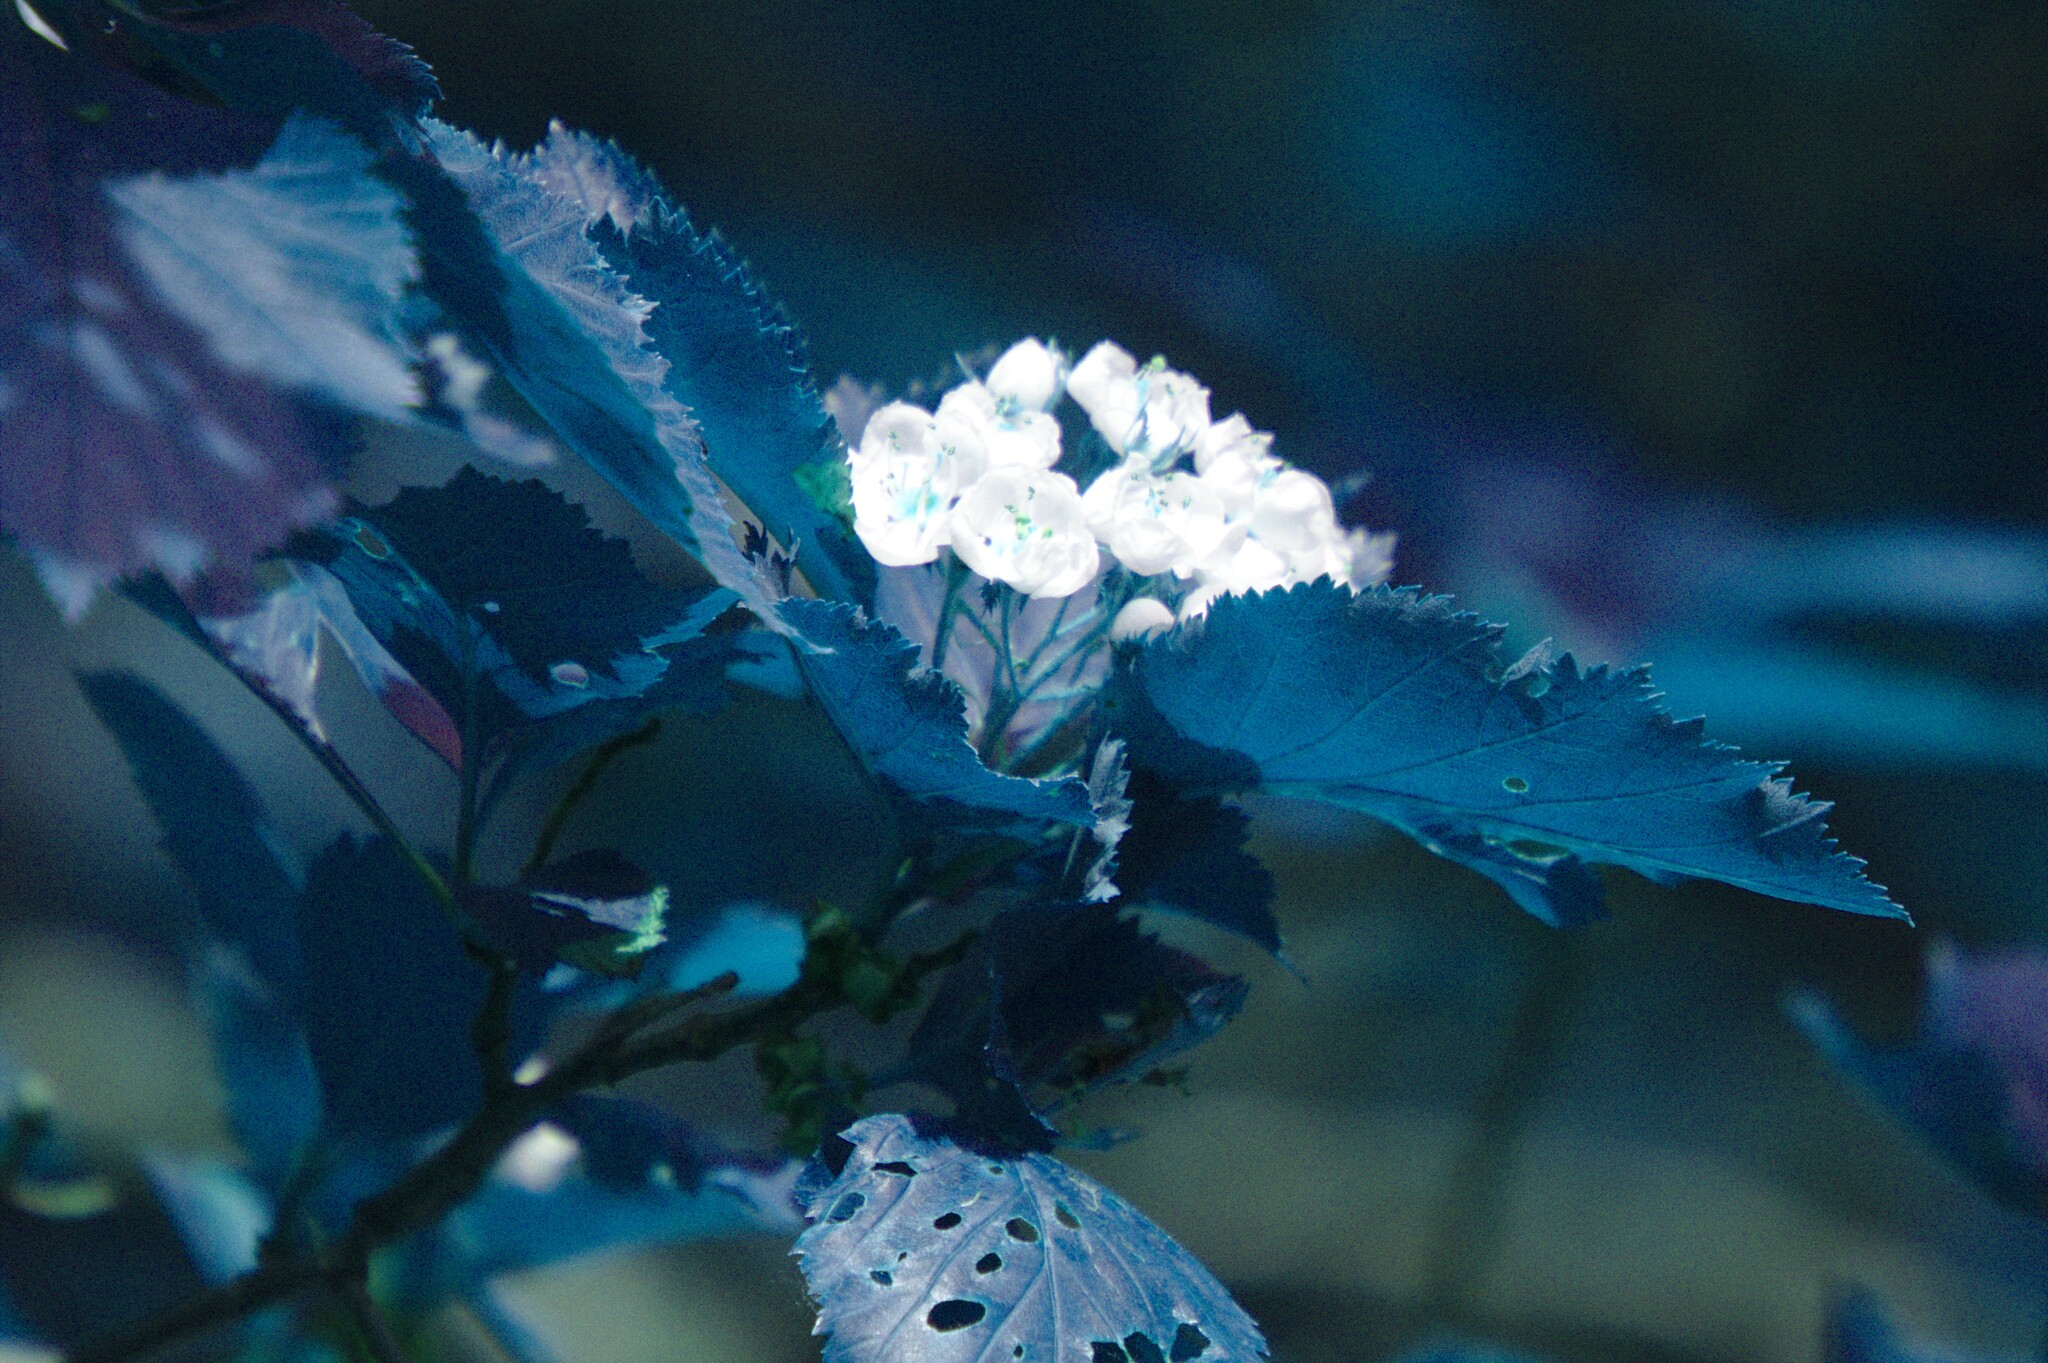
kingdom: Plantae
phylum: Tracheophyta
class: Magnoliopsida
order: Rosales
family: Rosaceae
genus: Crataegus
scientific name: Crataegus macracantha
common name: Large-thorn hawthorn
